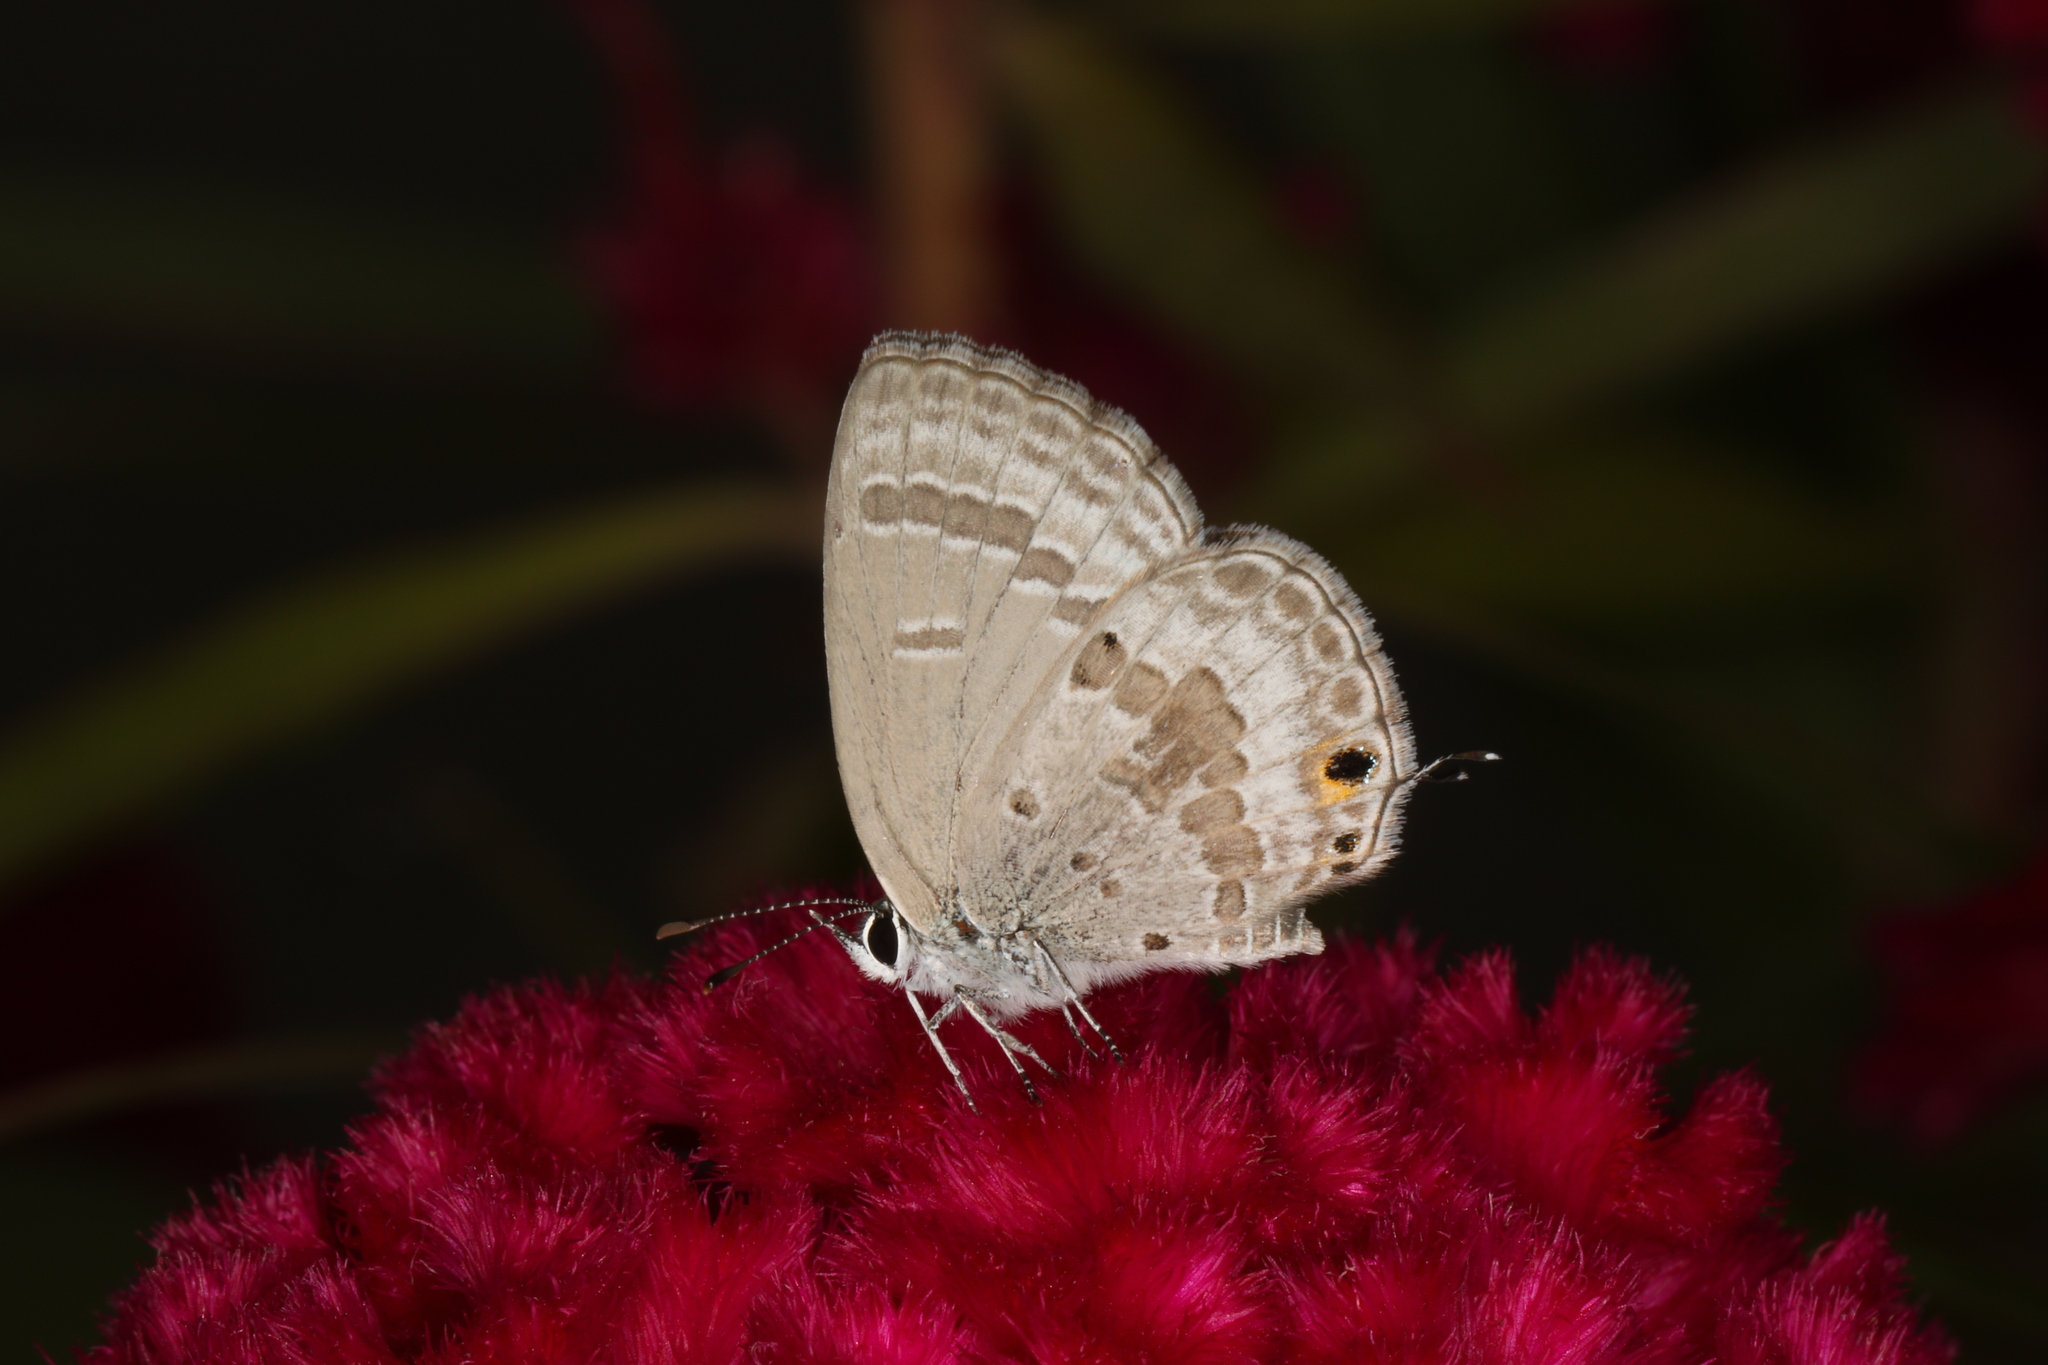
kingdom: Animalia
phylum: Arthropoda
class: Insecta
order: Lepidoptera
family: Lycaenidae
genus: Luthrodes
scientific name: Luthrodes pandava
